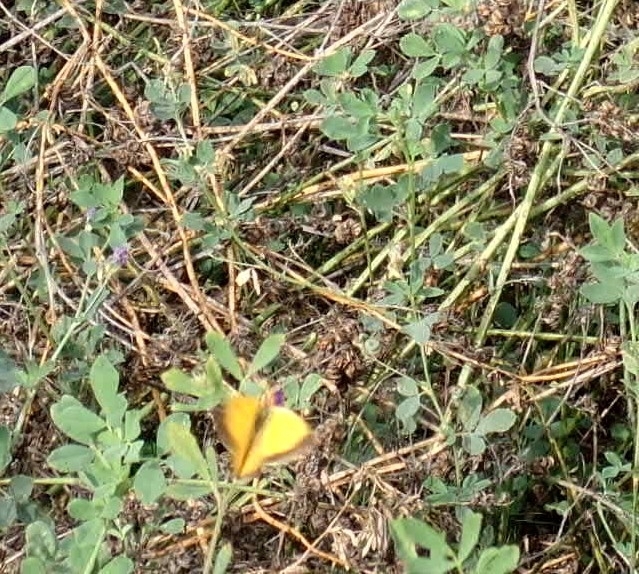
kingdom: Animalia
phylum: Arthropoda
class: Insecta
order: Lepidoptera
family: Pieridae
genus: Colias
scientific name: Colias croceus
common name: Clouded yellow
